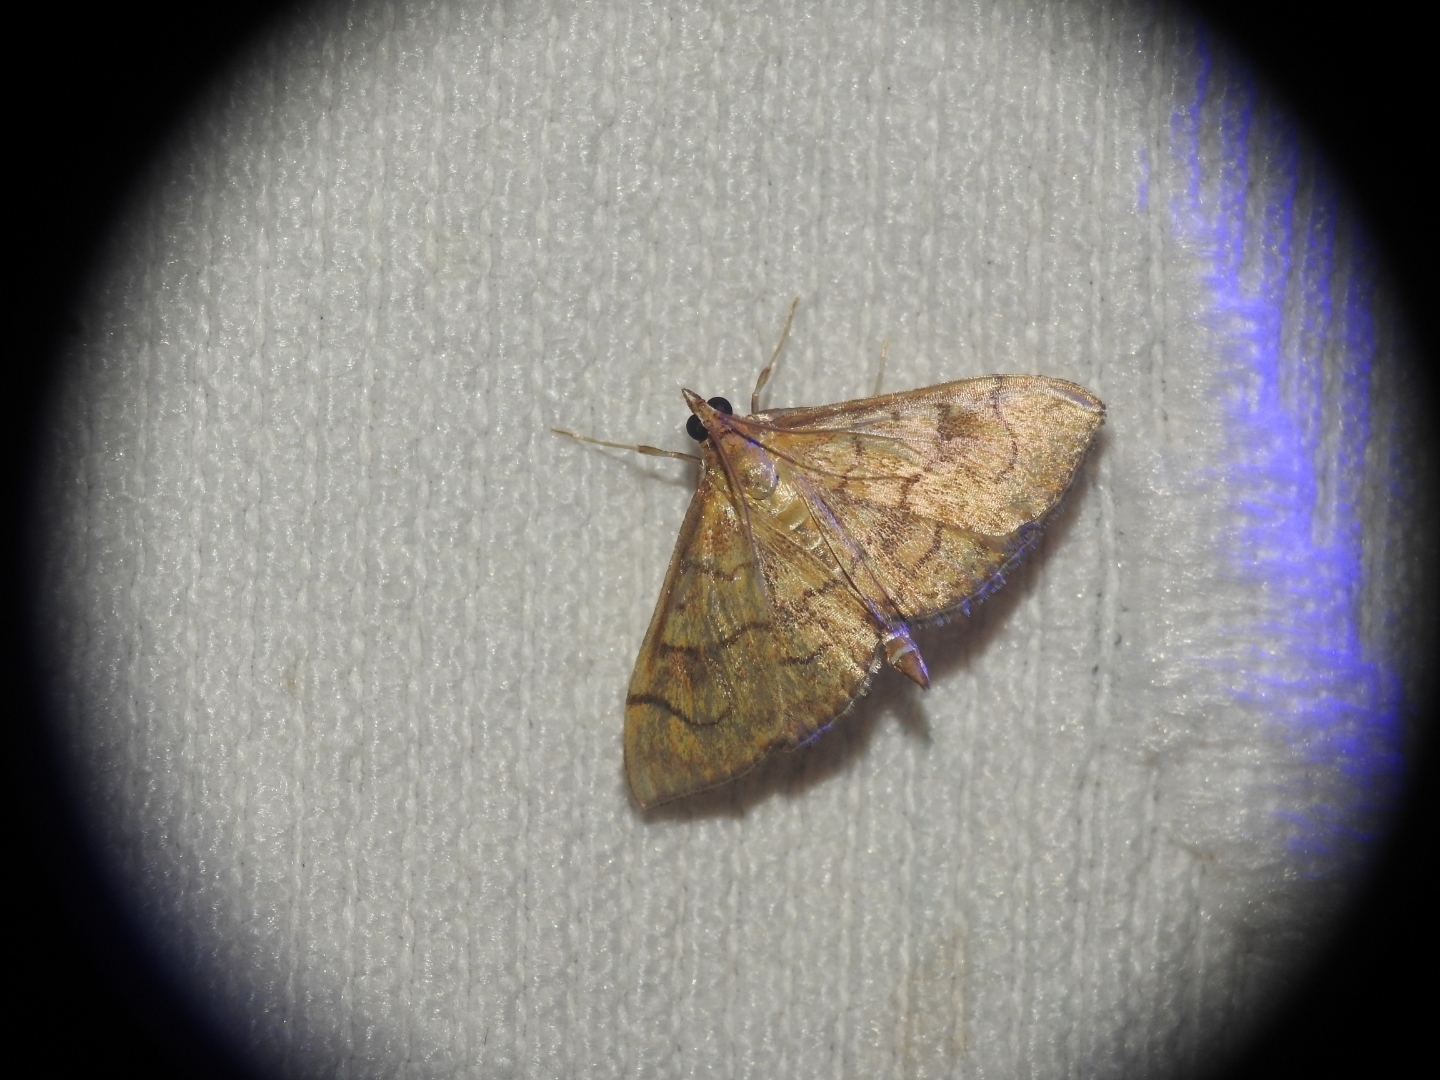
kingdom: Animalia
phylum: Arthropoda
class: Insecta
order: Lepidoptera
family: Crambidae
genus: Anania
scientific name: Anania verbascalis
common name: Golden pearl
